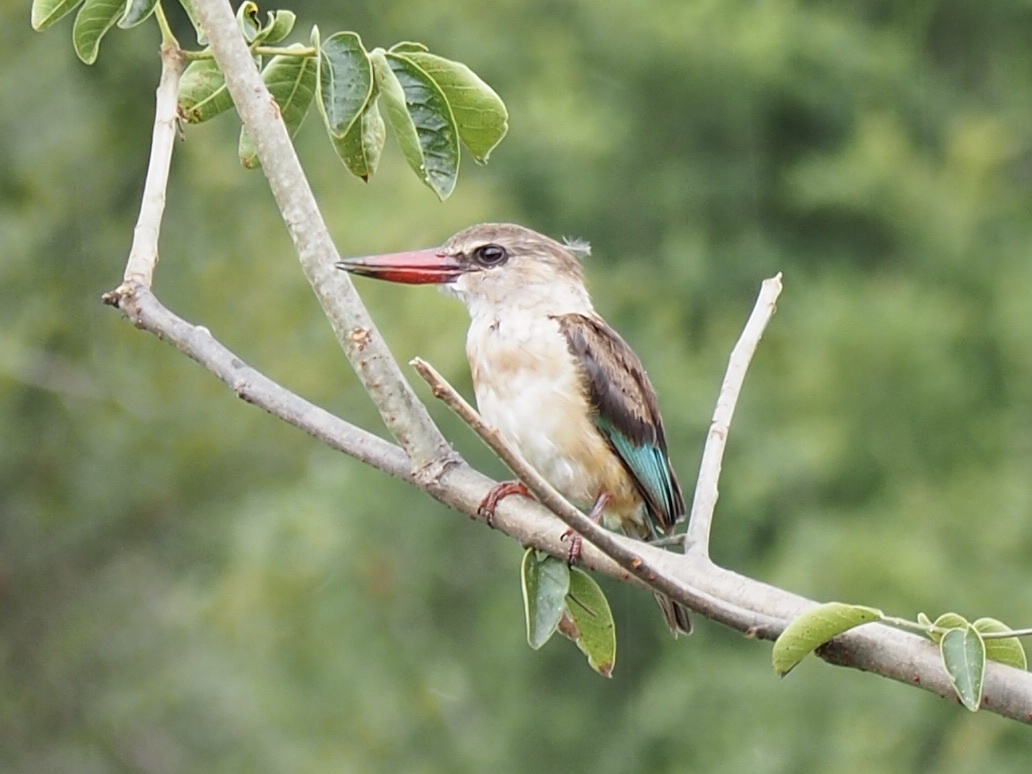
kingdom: Animalia
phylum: Chordata
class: Aves
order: Coraciiformes
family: Alcedinidae
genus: Halcyon
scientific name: Halcyon albiventris
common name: Brown-hooded kingfisher
